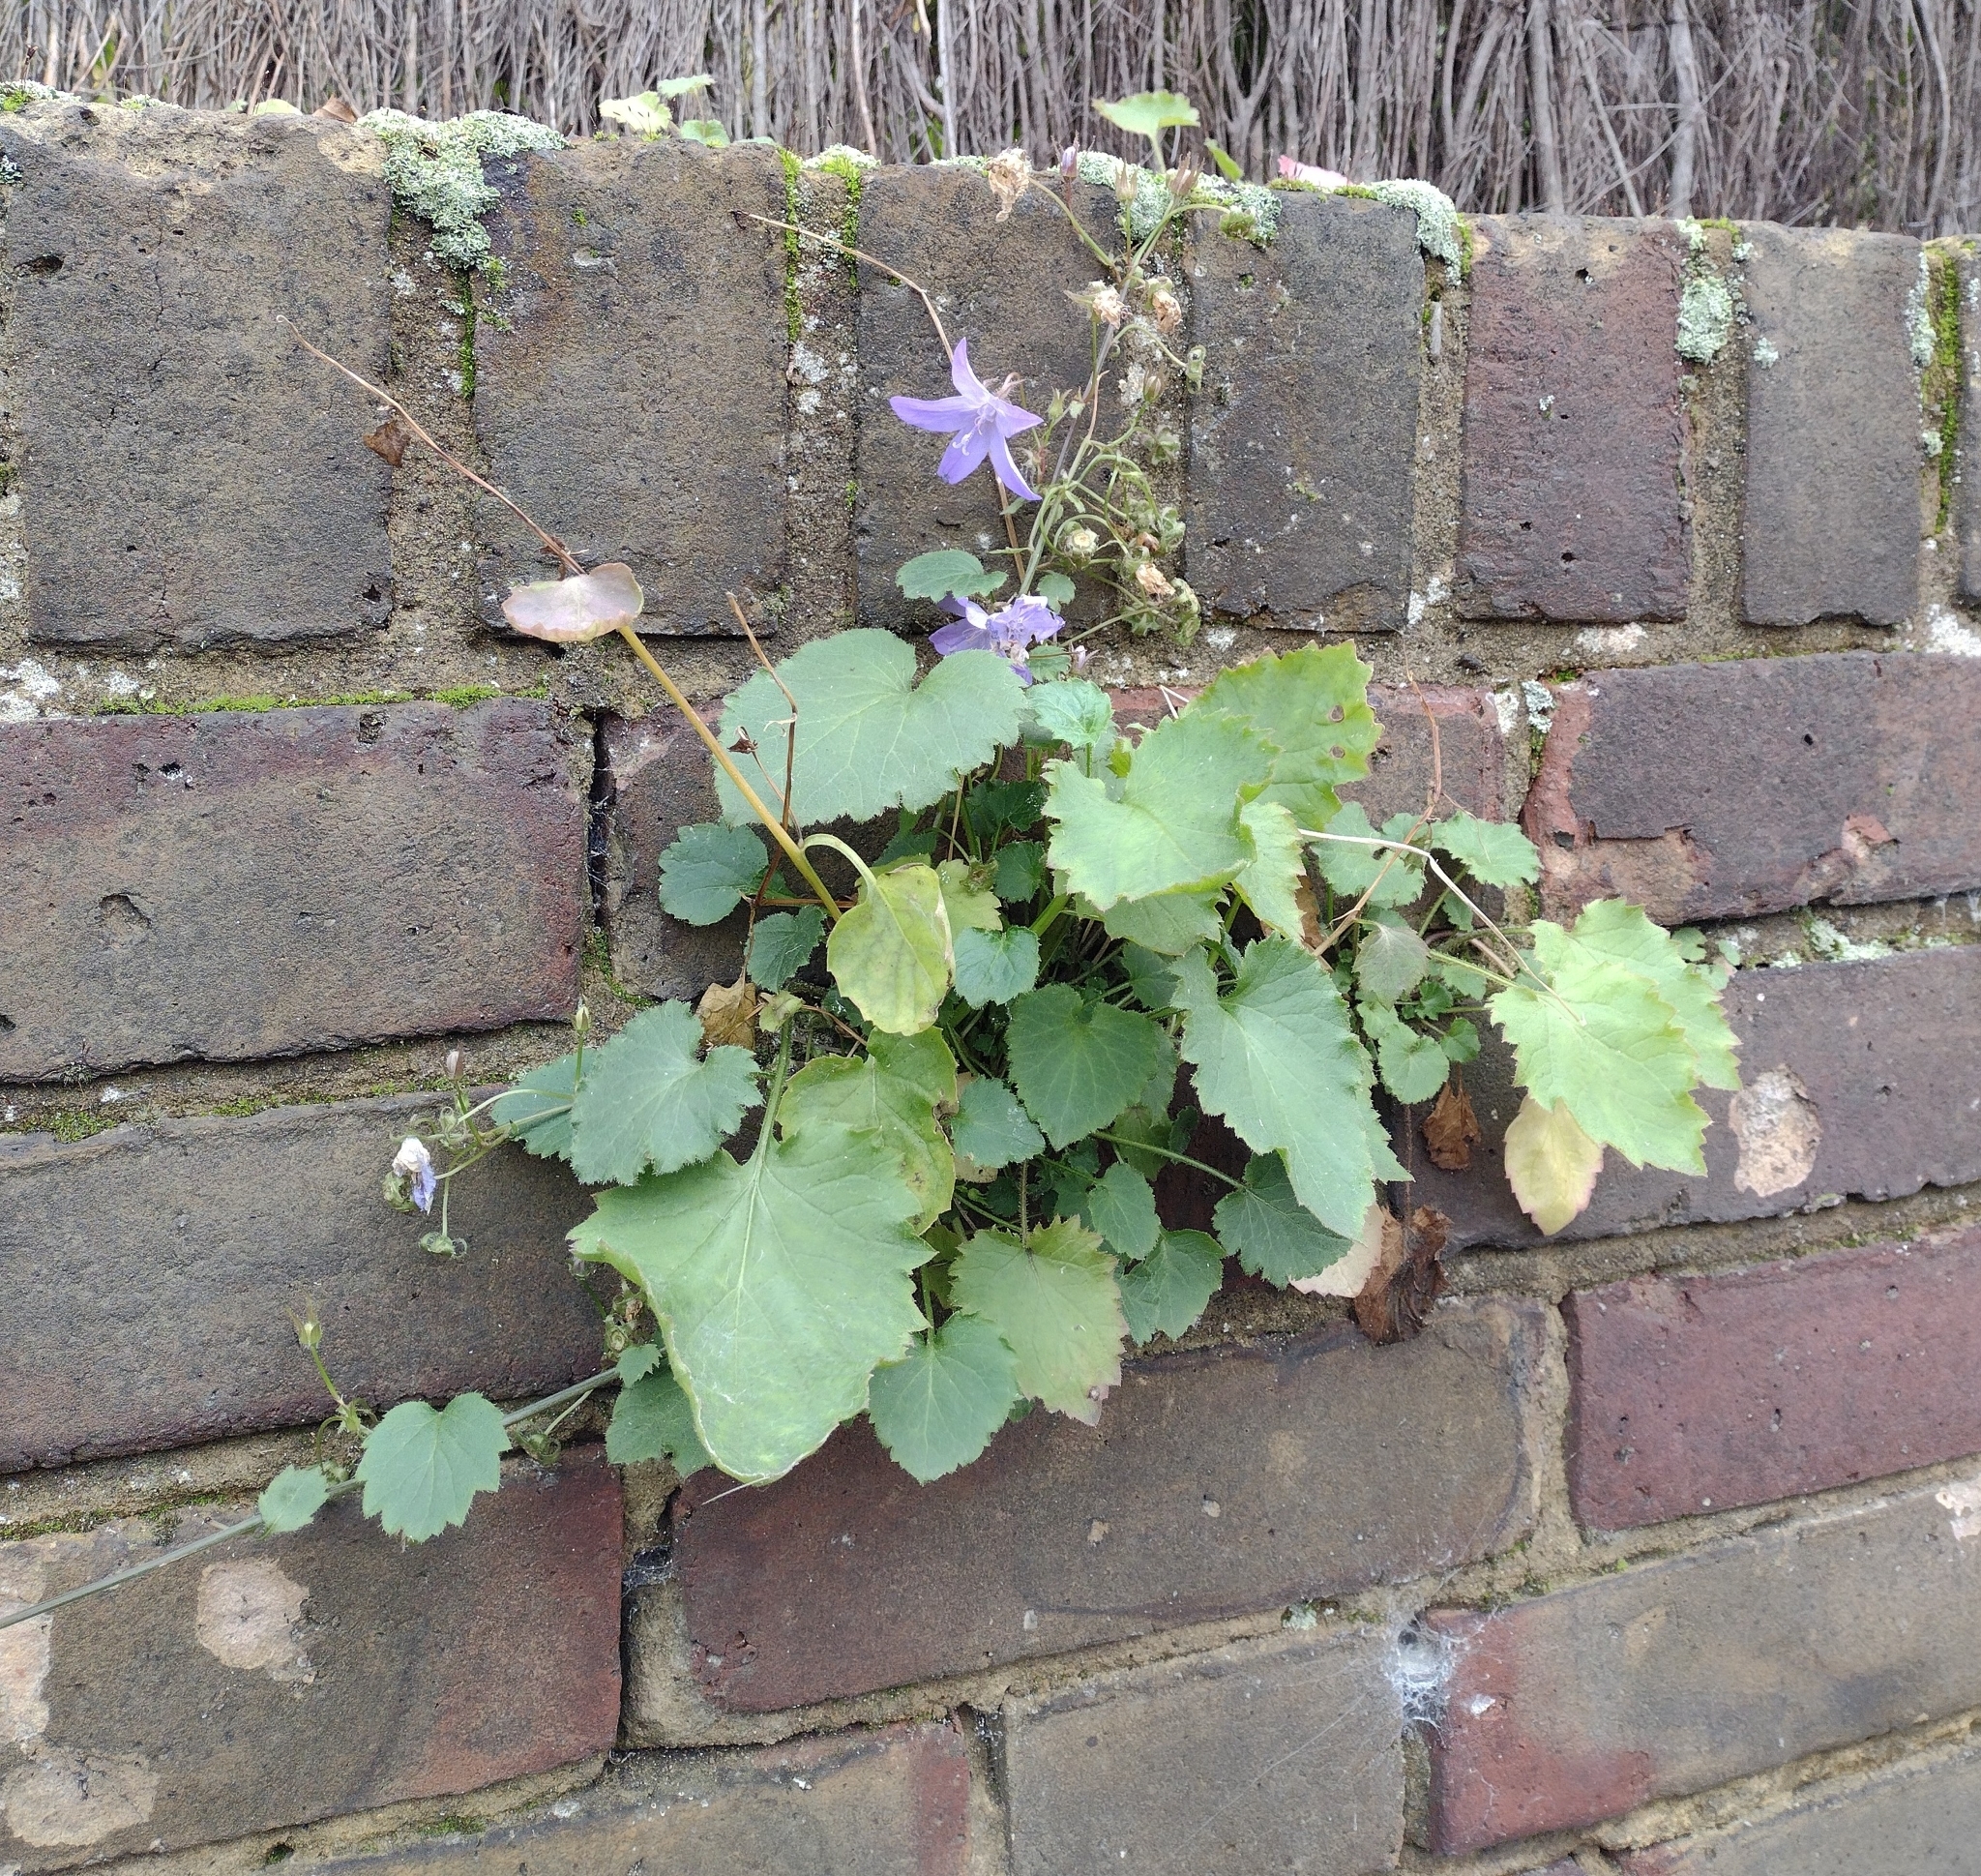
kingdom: Plantae
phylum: Tracheophyta
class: Magnoliopsida
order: Asterales
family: Campanulaceae
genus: Campanula
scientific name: Campanula poscharskyana
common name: Trailing bellflower
